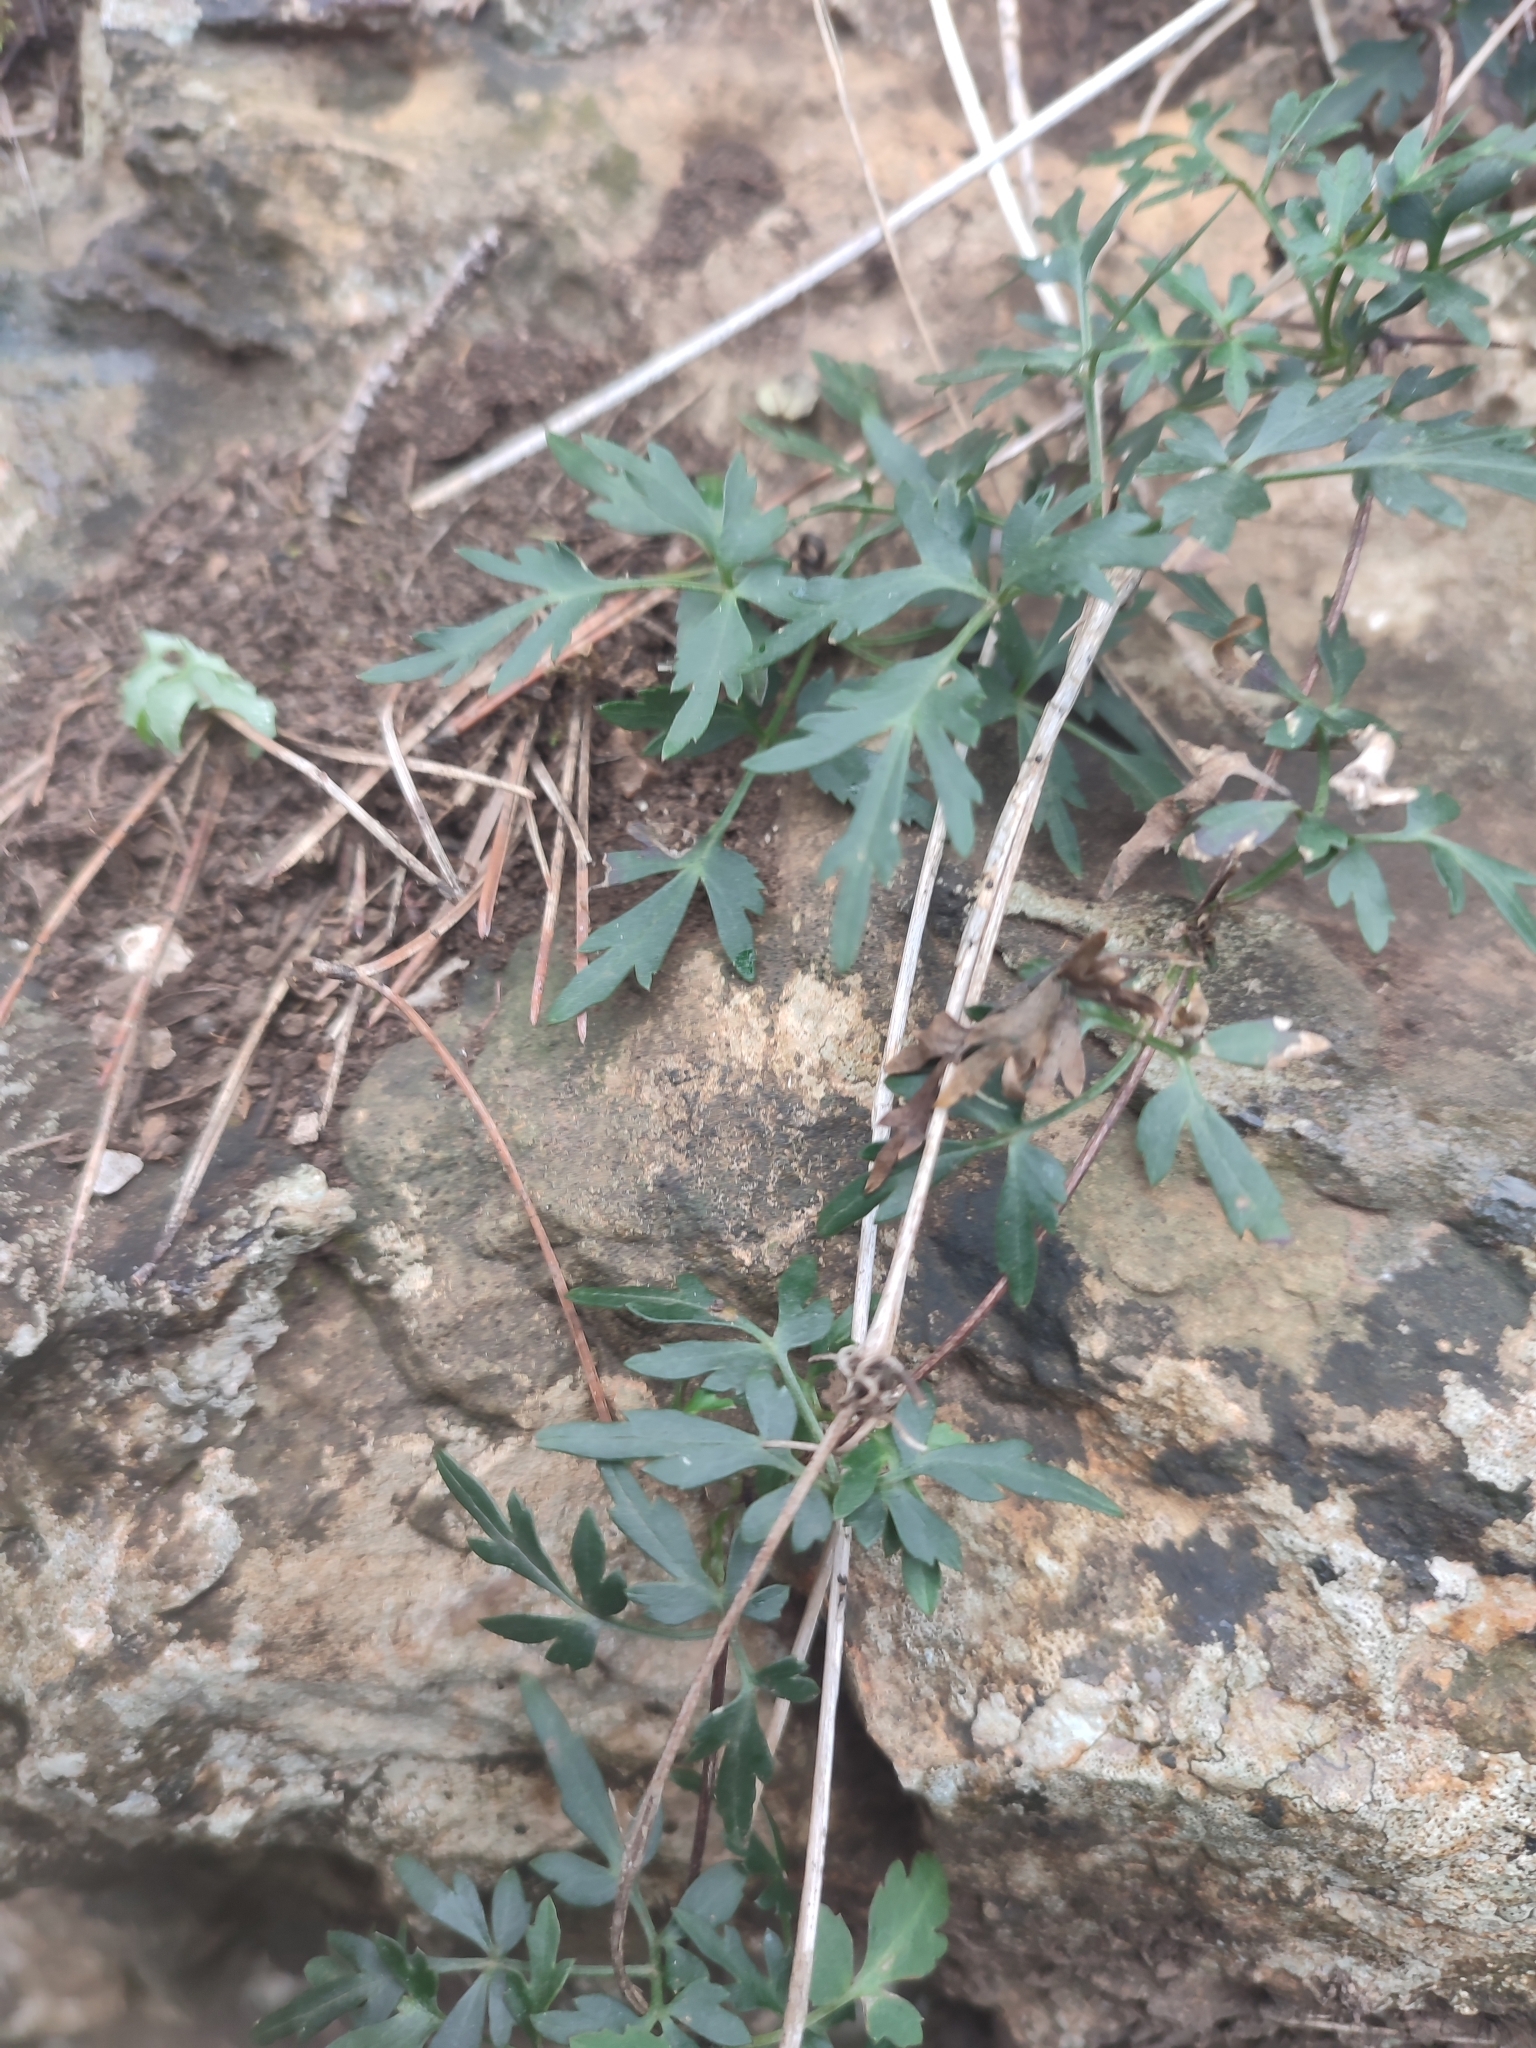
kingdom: Plantae
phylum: Tracheophyta
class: Magnoliopsida
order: Ranunculales
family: Ranunculaceae
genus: Clematis
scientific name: Clematis cirrhosa
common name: Early virgin's-bower
